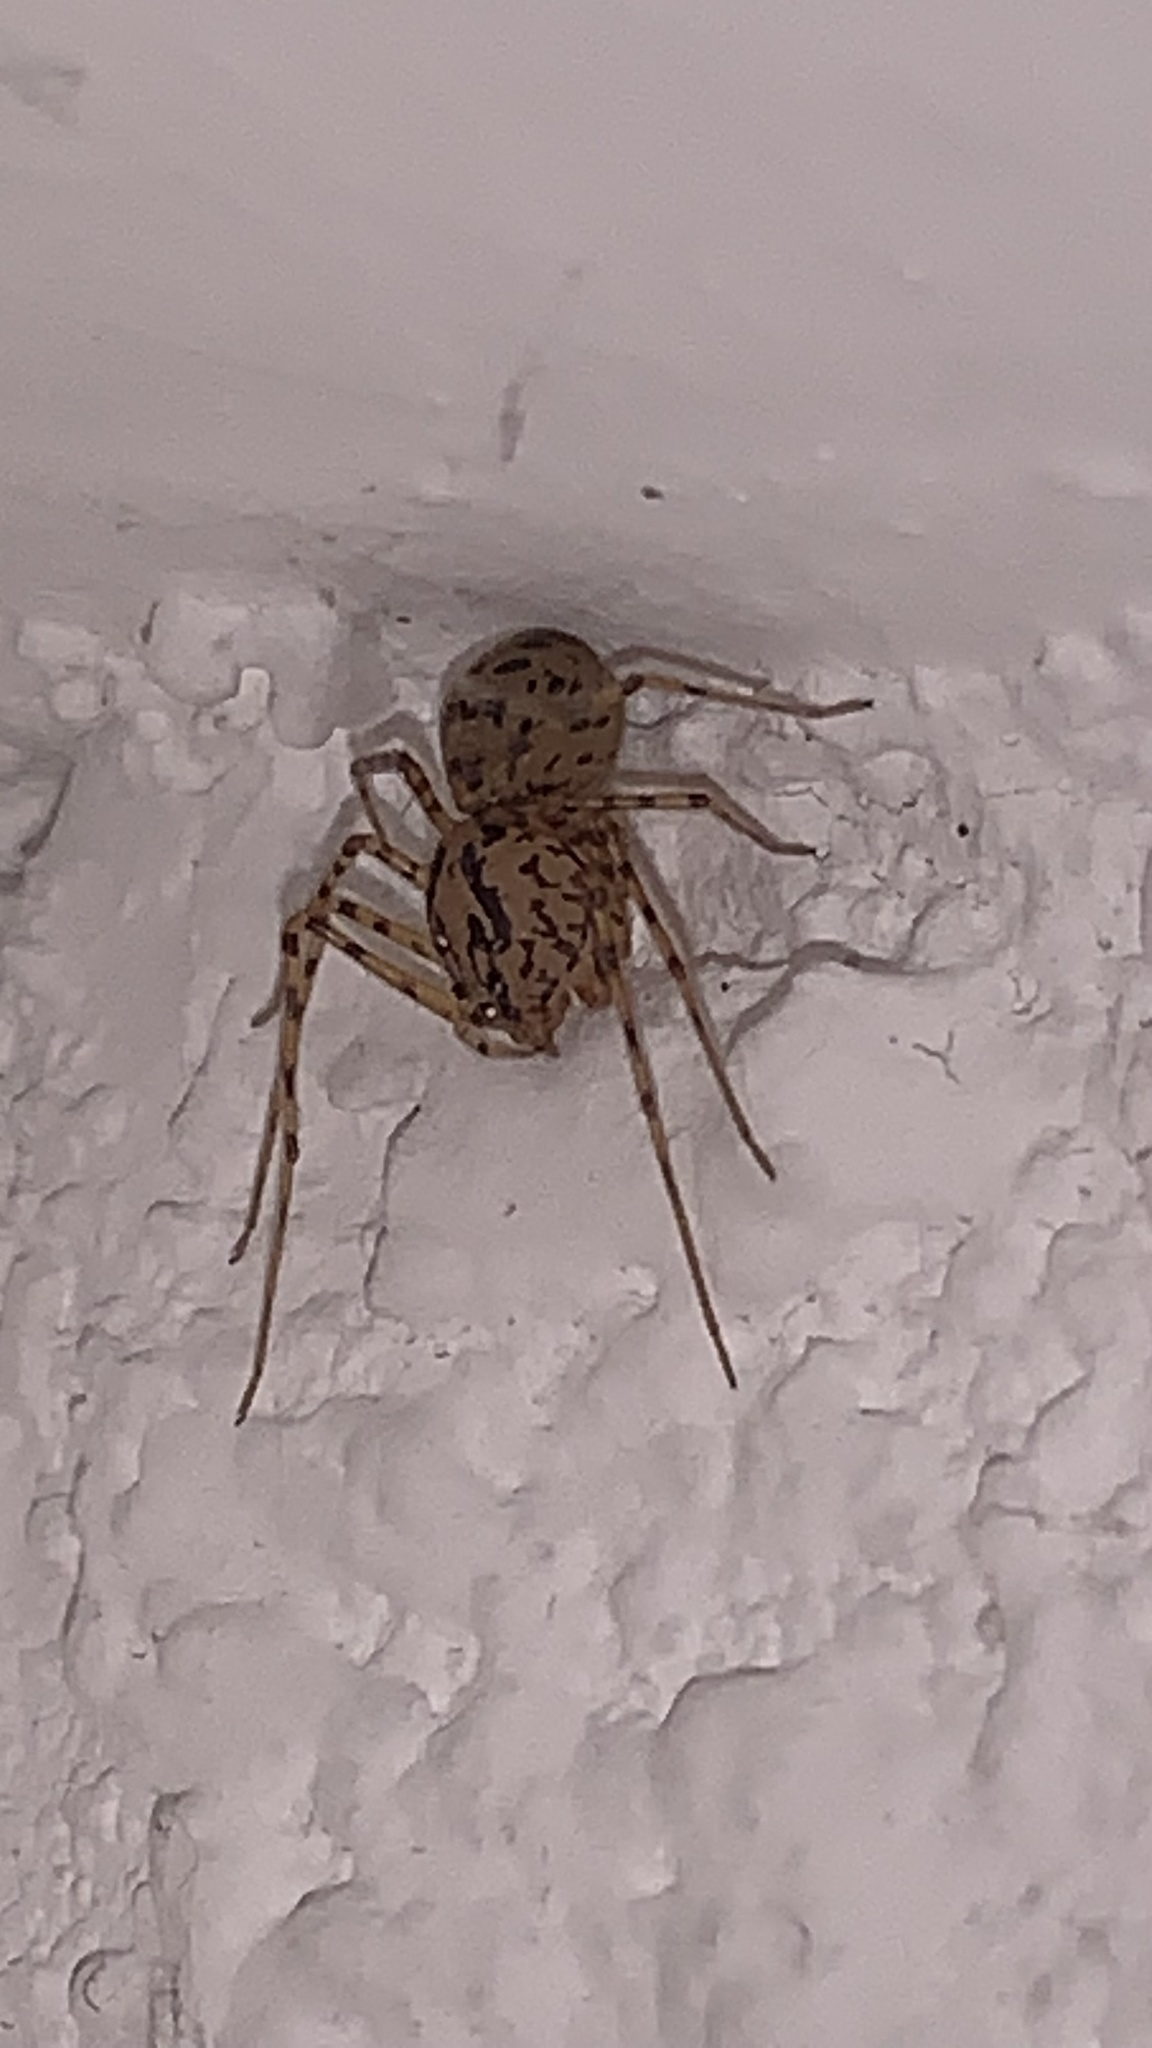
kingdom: Animalia
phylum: Arthropoda
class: Arachnida
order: Araneae
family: Scytodidae
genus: Scytodes
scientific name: Scytodes thoracica
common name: Spitting spider
